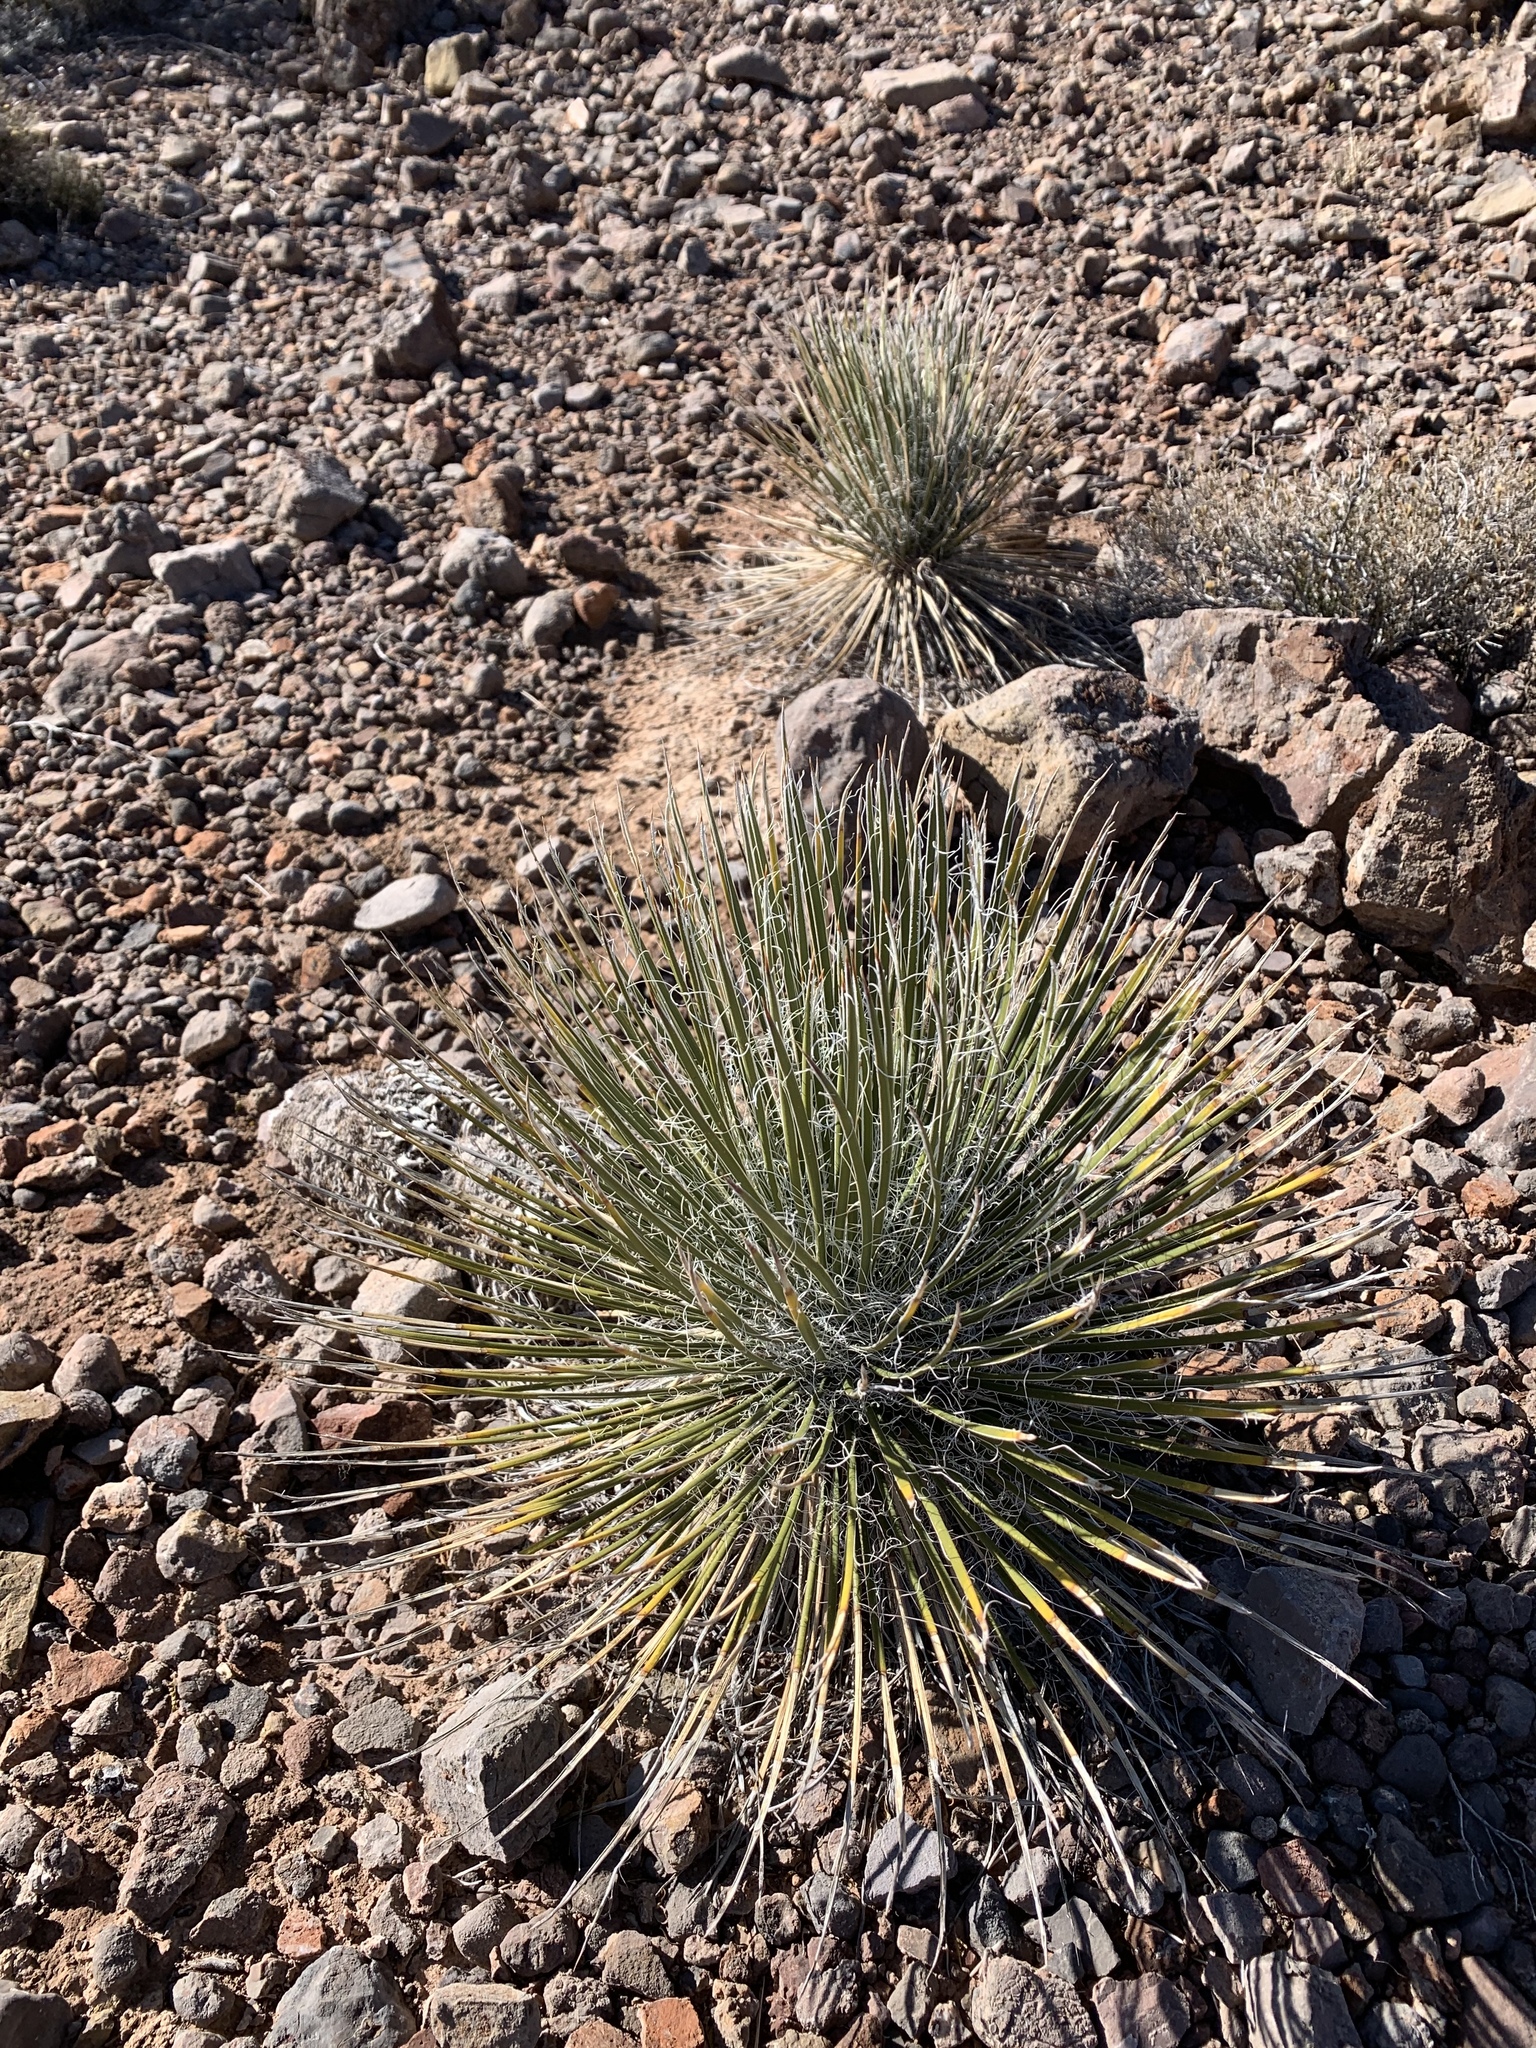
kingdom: Plantae
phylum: Tracheophyta
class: Liliopsida
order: Asparagales
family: Asparagaceae
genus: Yucca
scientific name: Yucca elata
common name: Palmella
